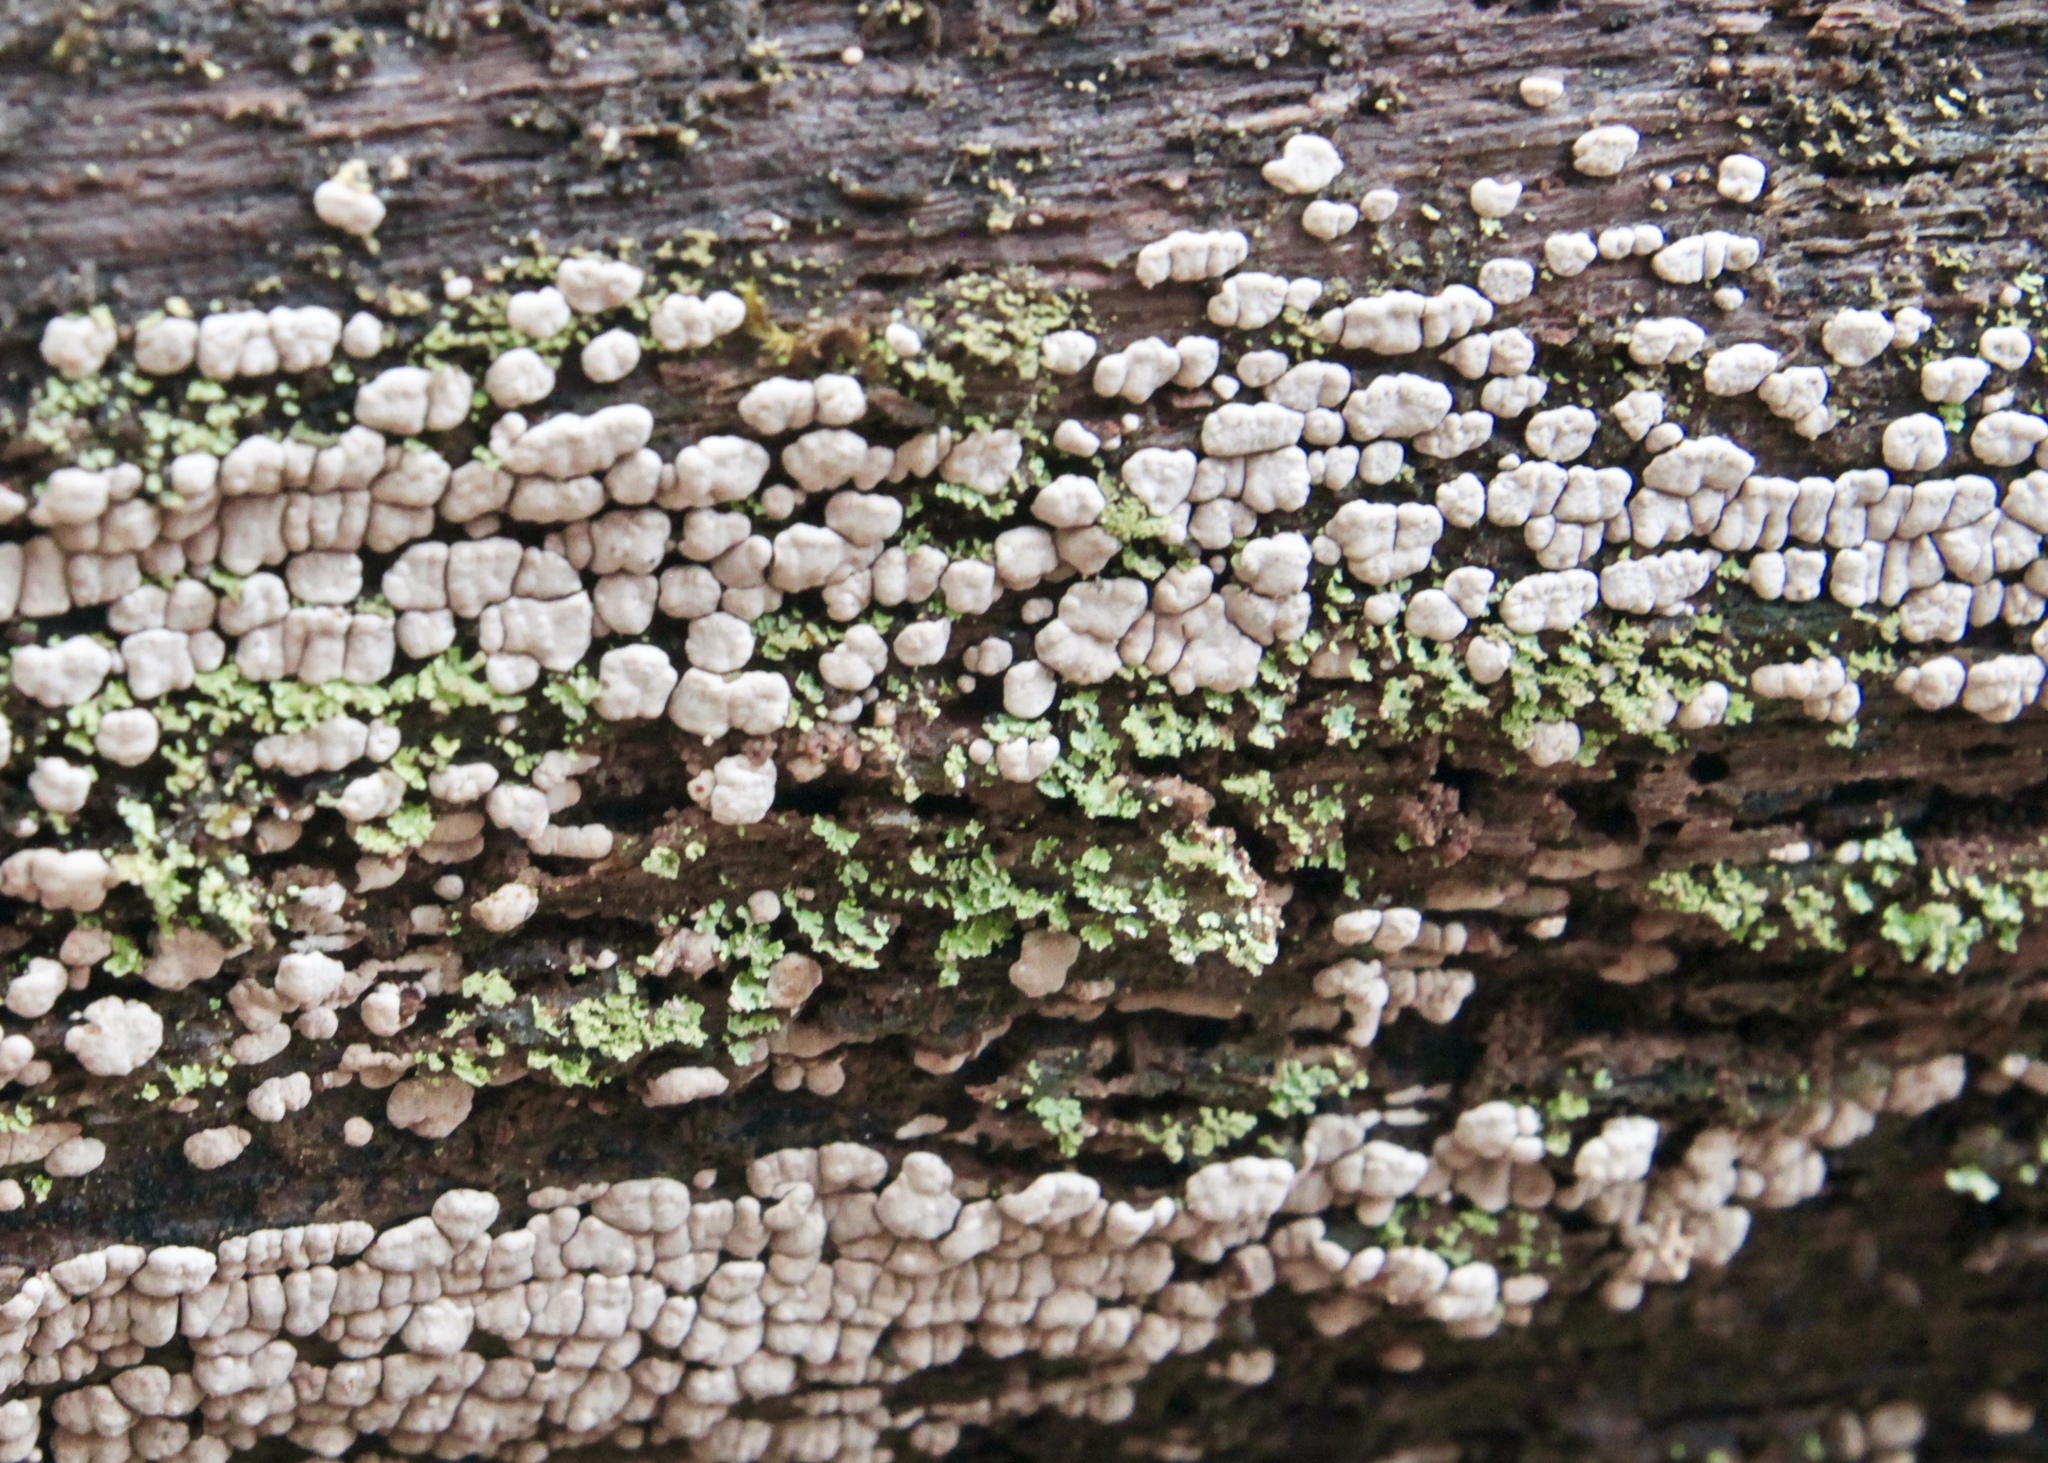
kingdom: Fungi
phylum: Basidiomycota
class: Agaricomycetes
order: Russulales
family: Stereaceae
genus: Xylobolus
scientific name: Xylobolus frustulatus
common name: Ceramic parchment
